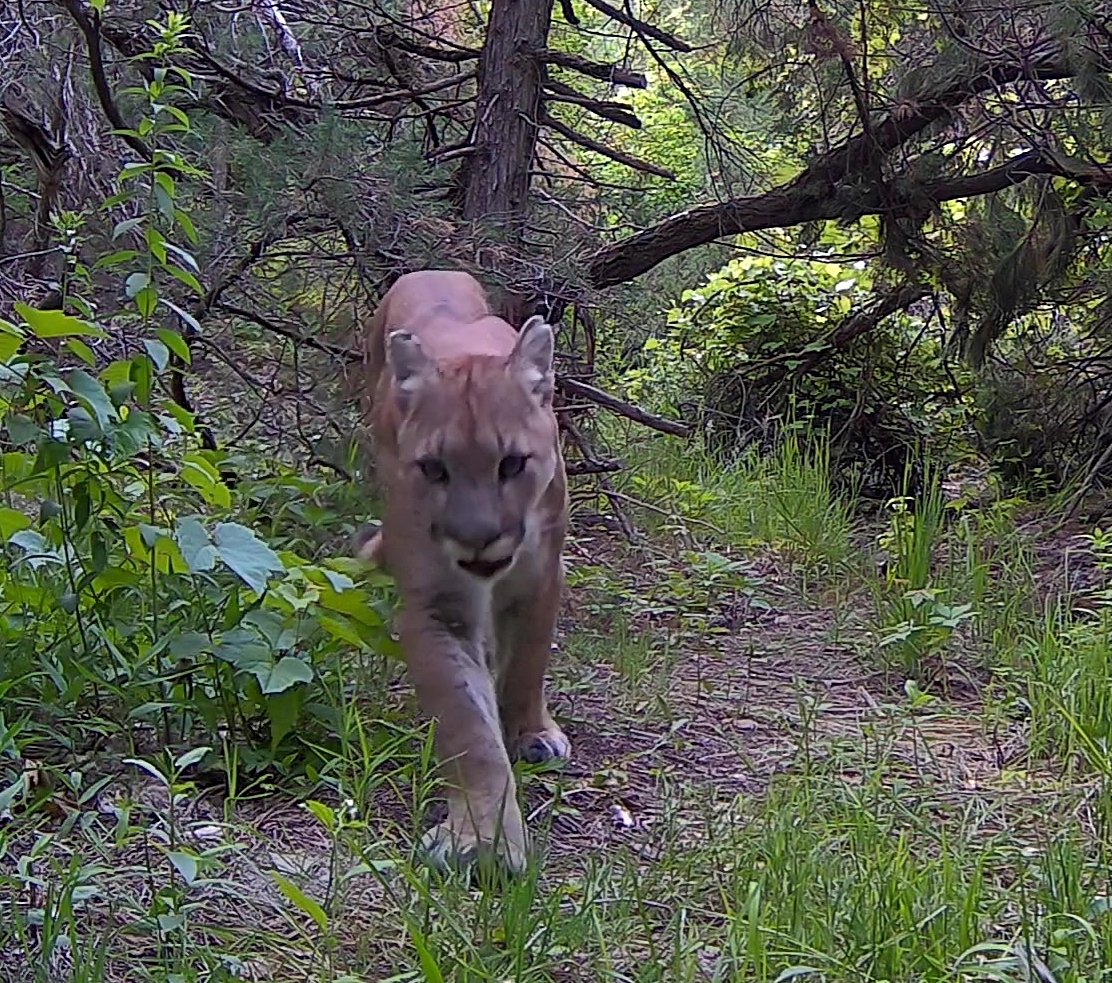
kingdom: Animalia
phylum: Chordata
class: Mammalia
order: Carnivora
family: Felidae
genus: Puma
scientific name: Puma concolor
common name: Puma
